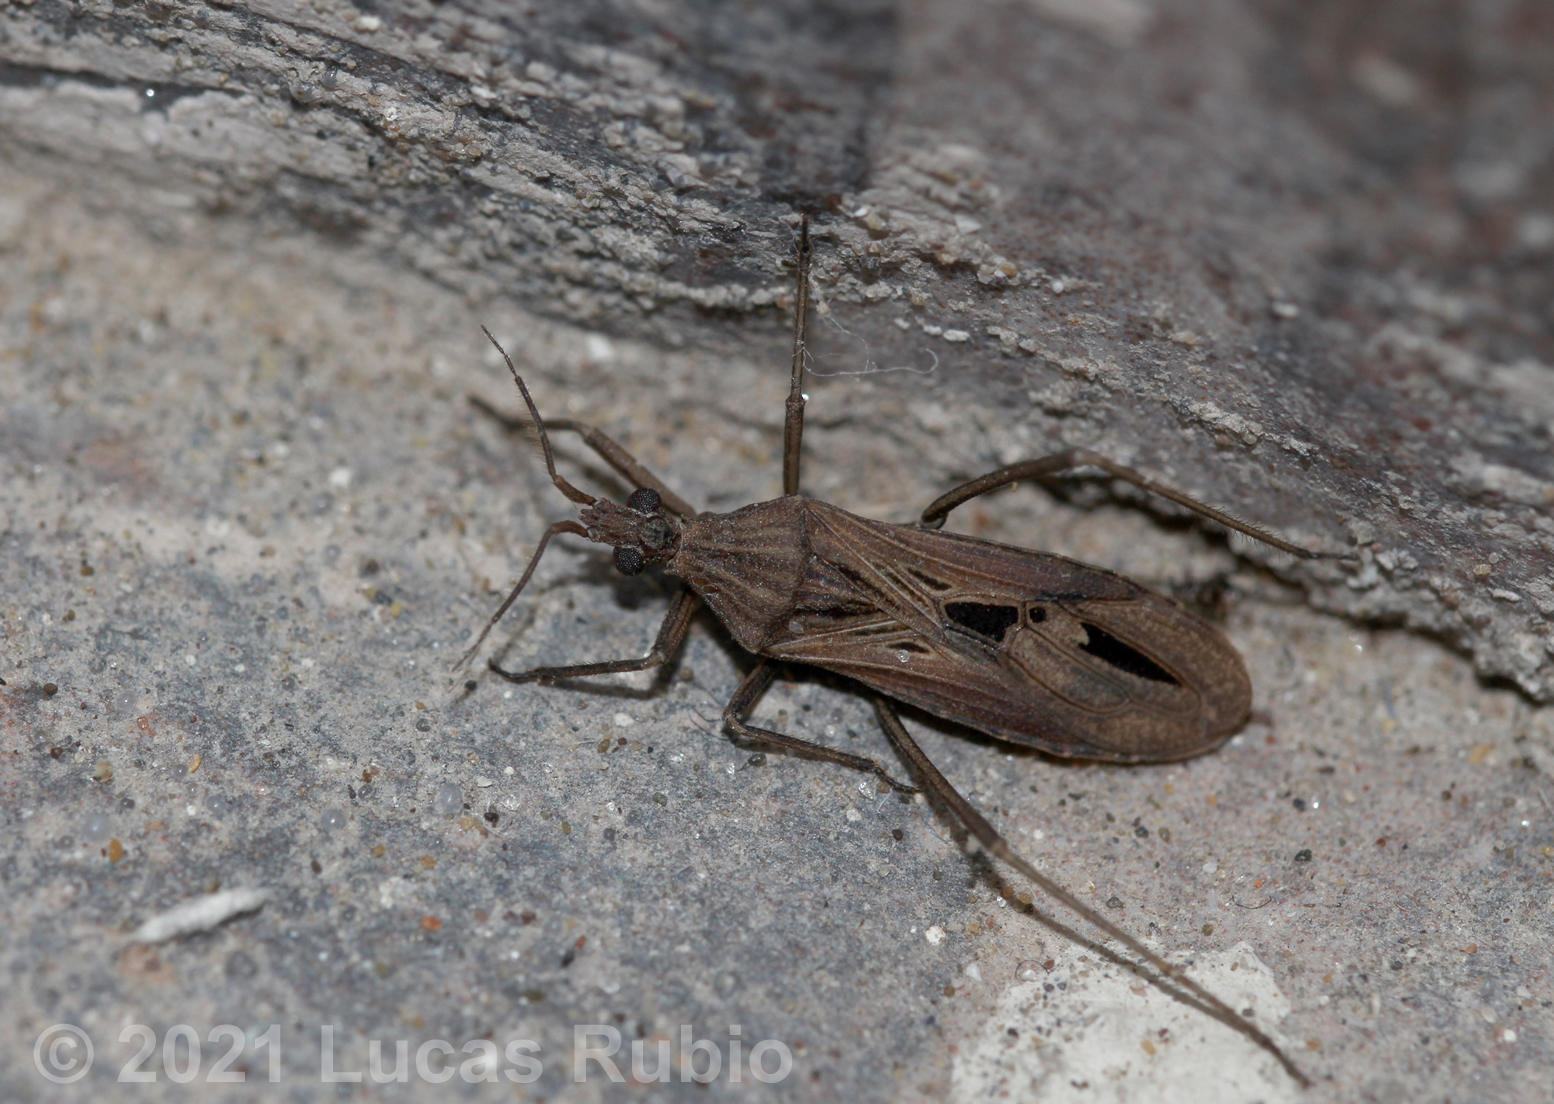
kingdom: Animalia
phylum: Arthropoda
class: Insecta
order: Hemiptera
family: Reduviidae
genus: Diaditus
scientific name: Diaditus latulus
